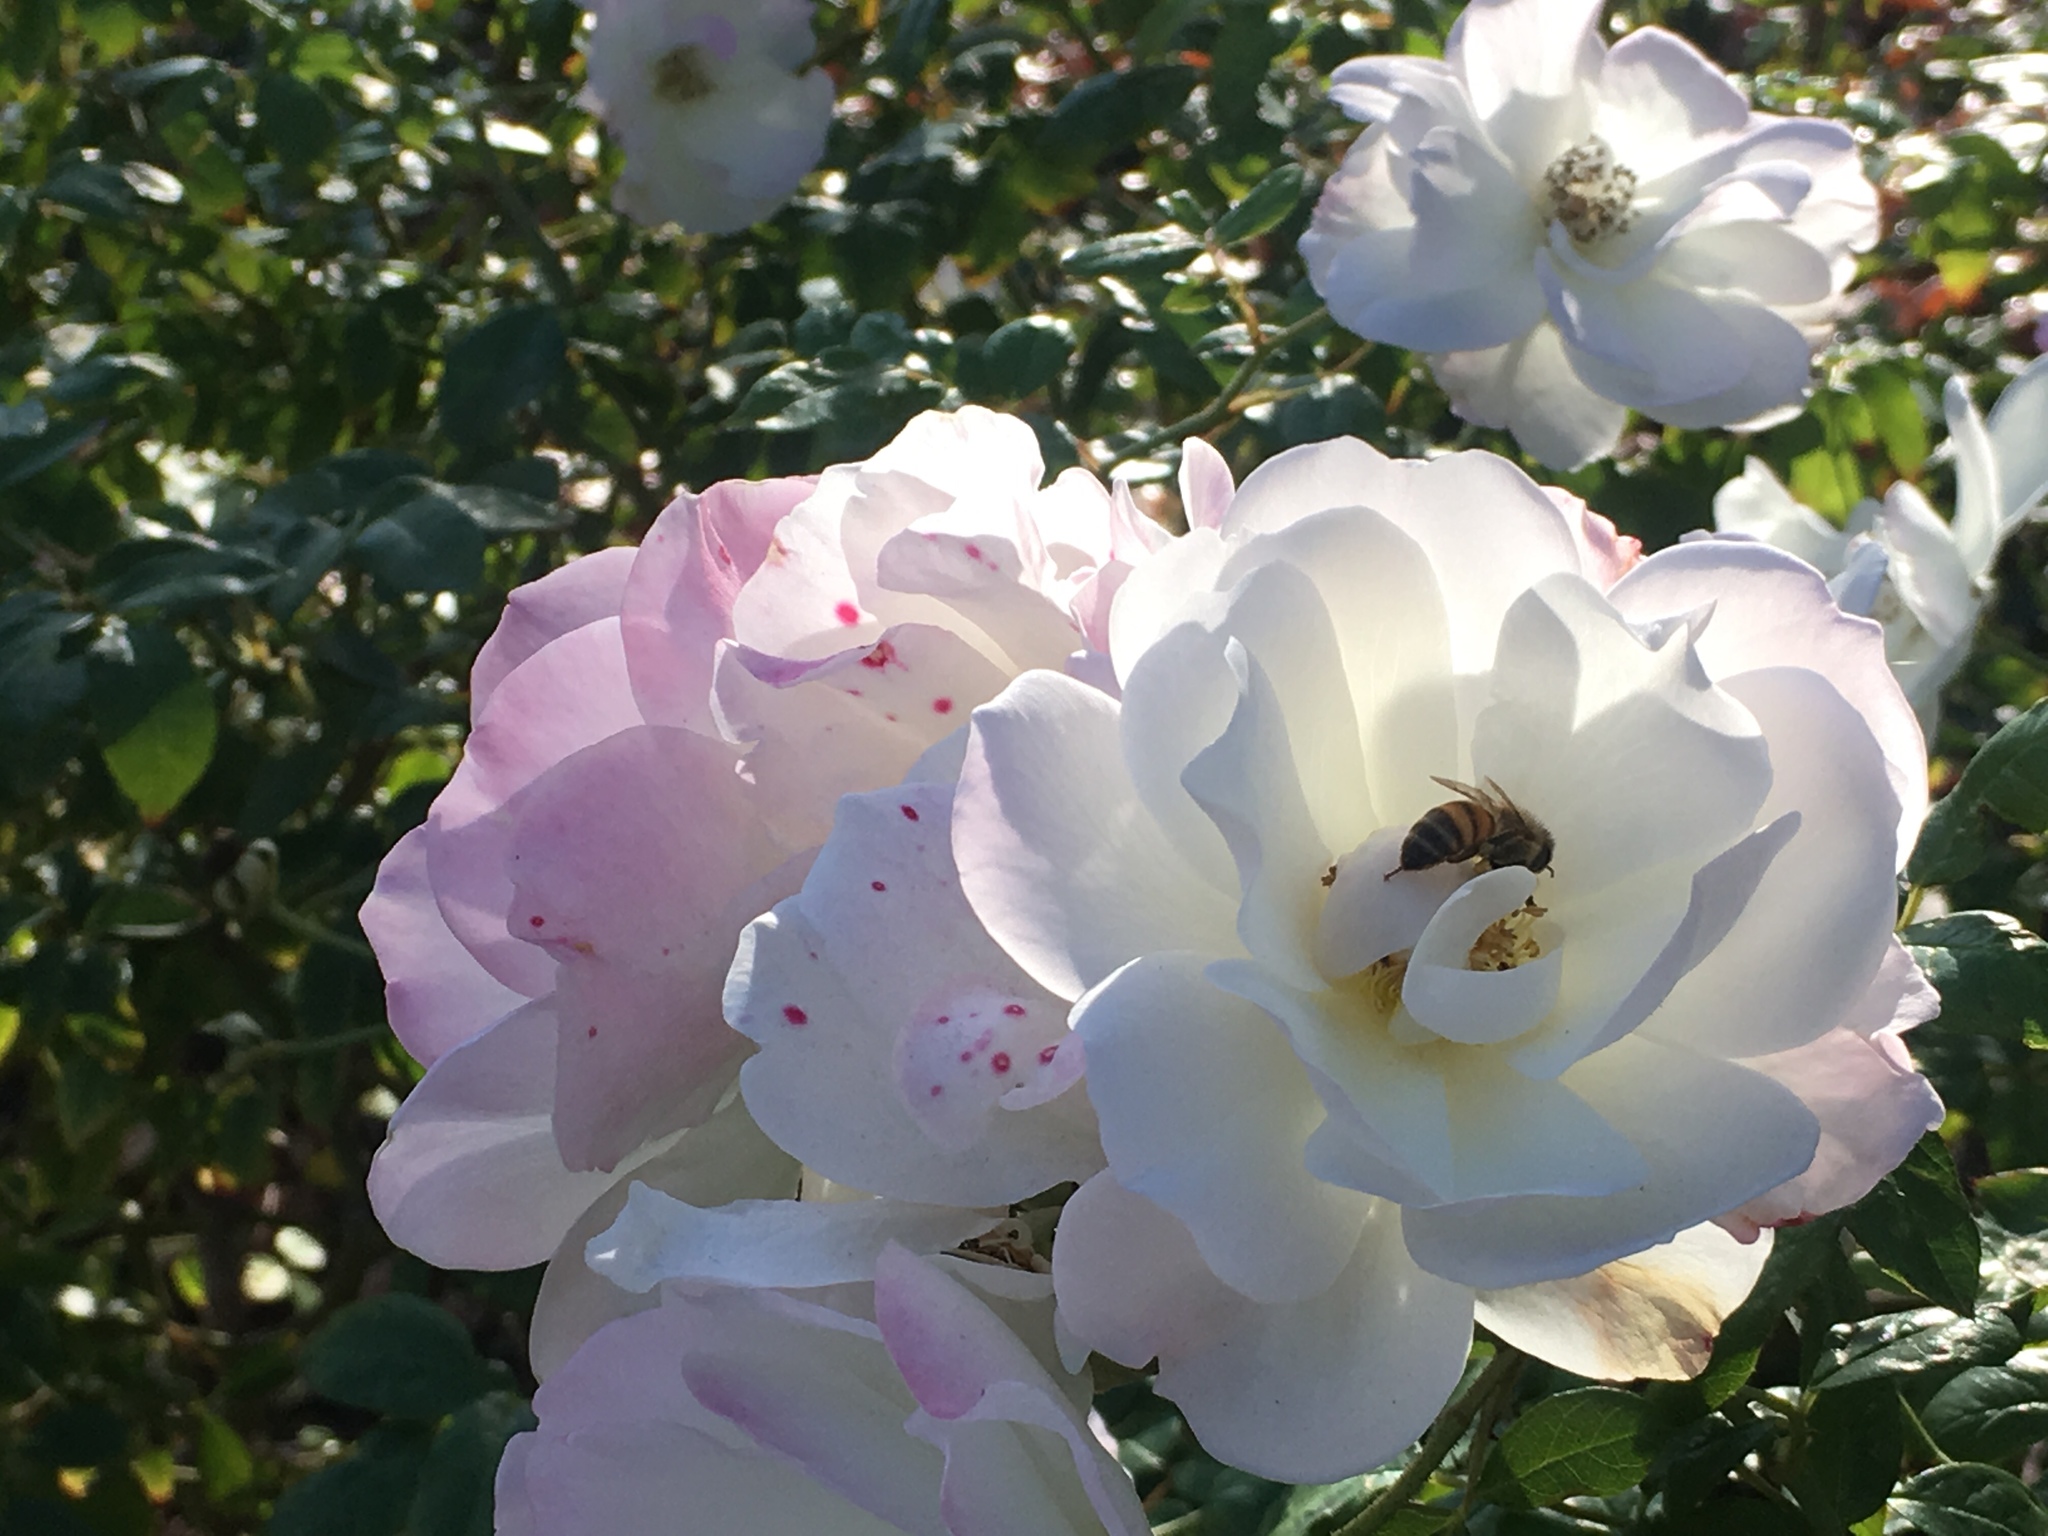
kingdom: Animalia
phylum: Arthropoda
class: Insecta
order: Hymenoptera
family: Apidae
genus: Apis
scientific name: Apis mellifera
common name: Honey bee
